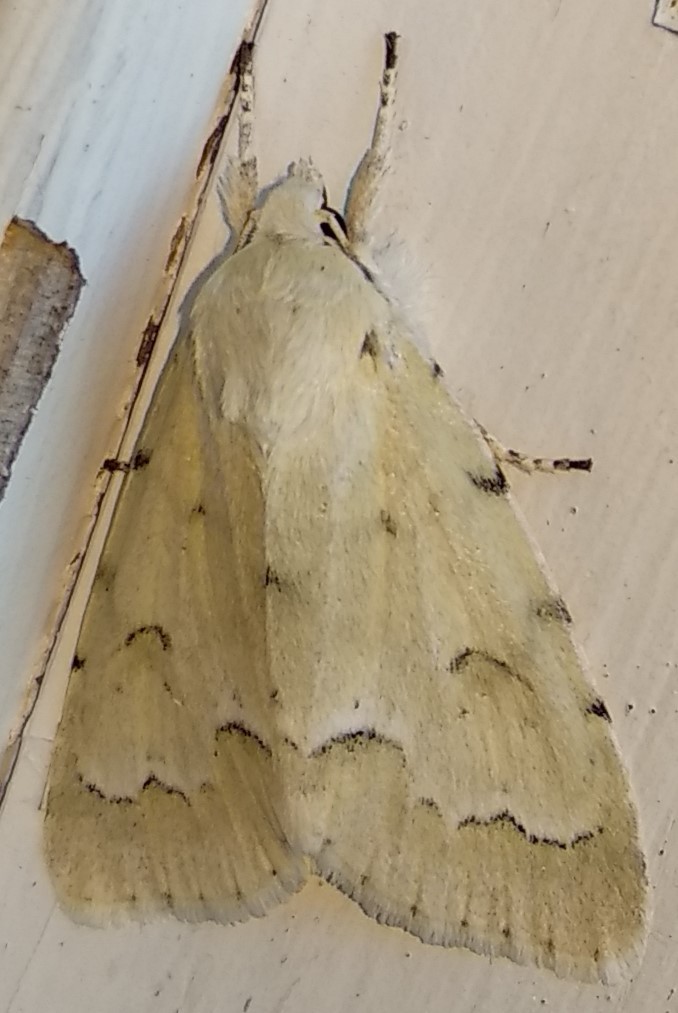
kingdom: Animalia
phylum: Arthropoda
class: Insecta
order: Lepidoptera
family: Noctuidae
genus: Acronicta
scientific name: Acronicta innotata
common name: Unmarked dagger
